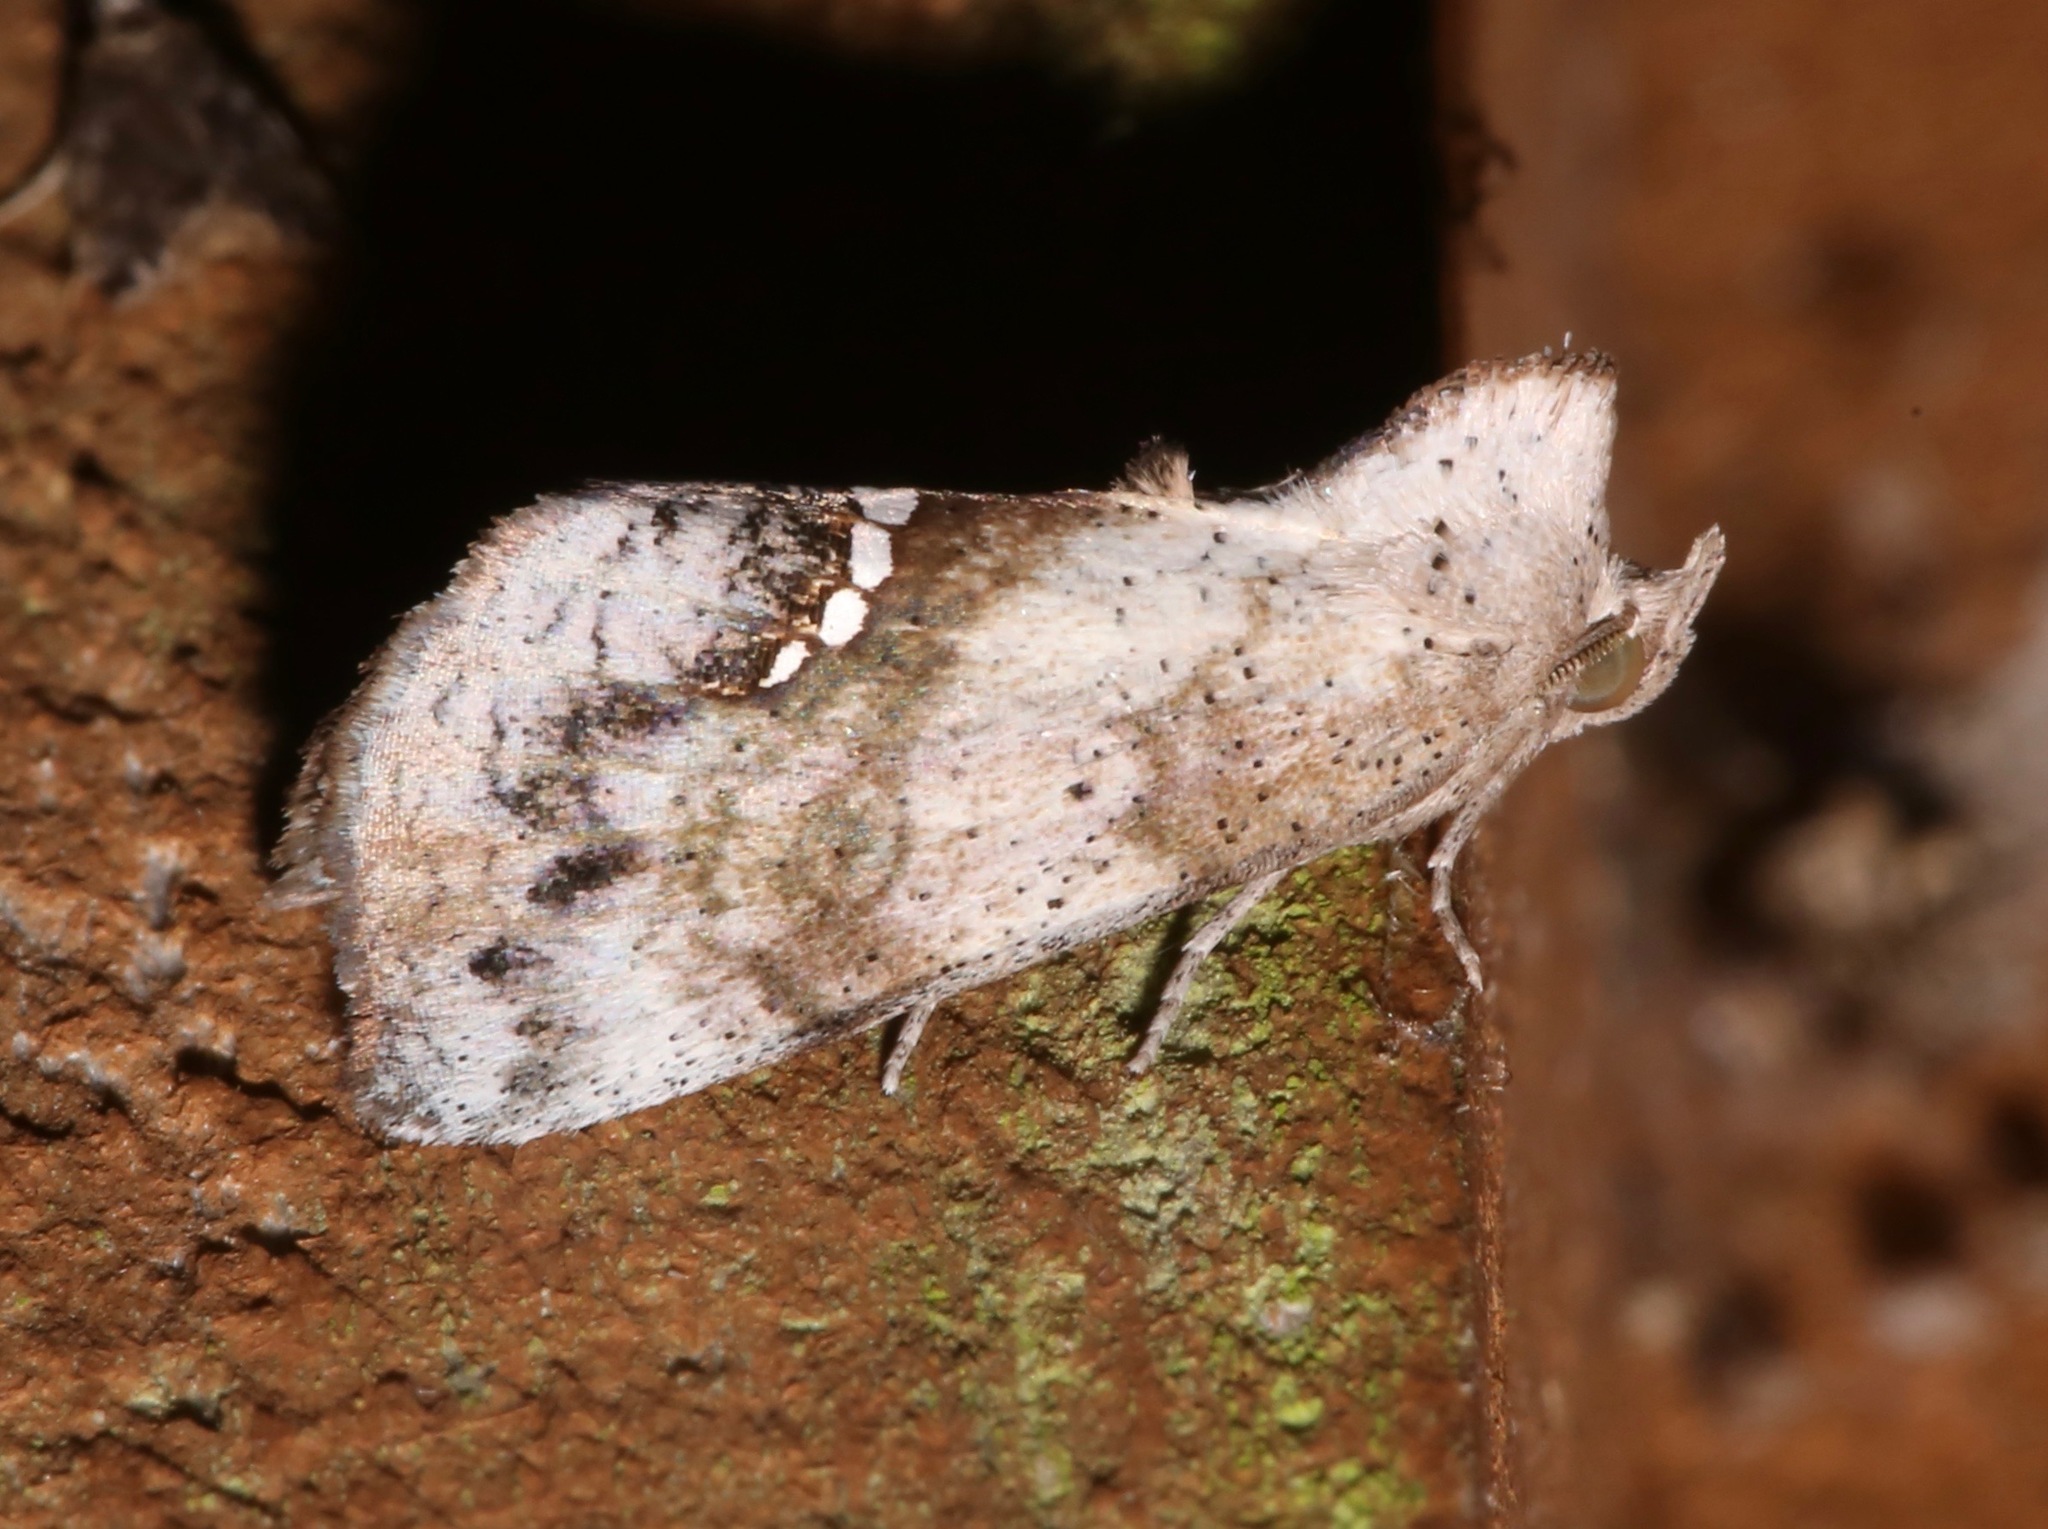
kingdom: Animalia
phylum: Arthropoda
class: Insecta
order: Lepidoptera
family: Erebidae
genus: Hypsoropha
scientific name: Hypsoropha hormos
